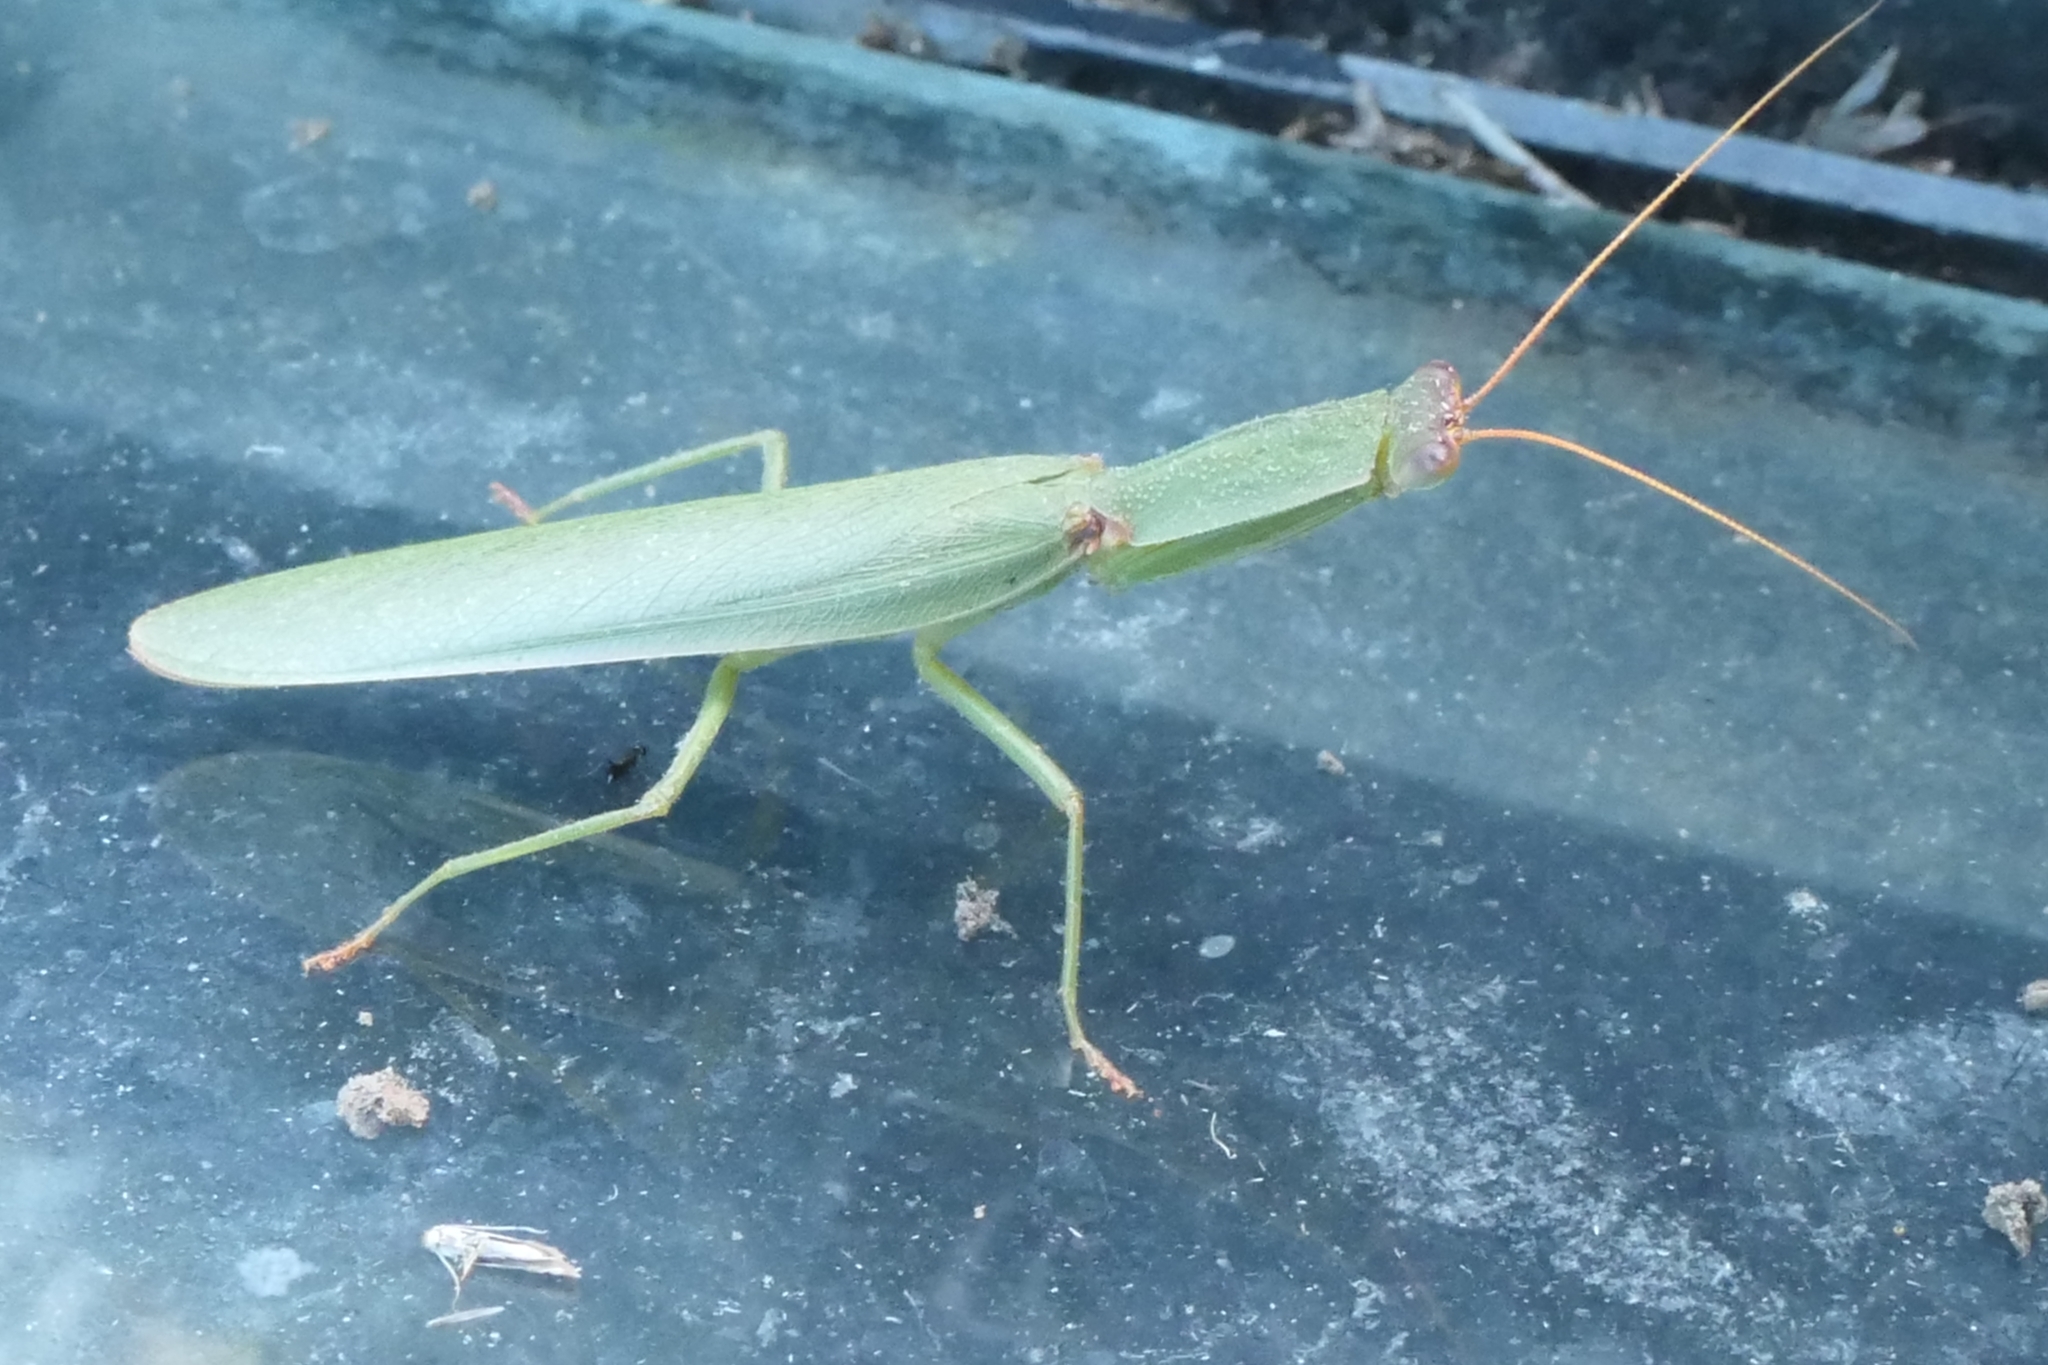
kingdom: Animalia
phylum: Arthropoda
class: Insecta
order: Mantodea
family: Mantidae
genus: Orthodera
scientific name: Orthodera novaezealandiae
